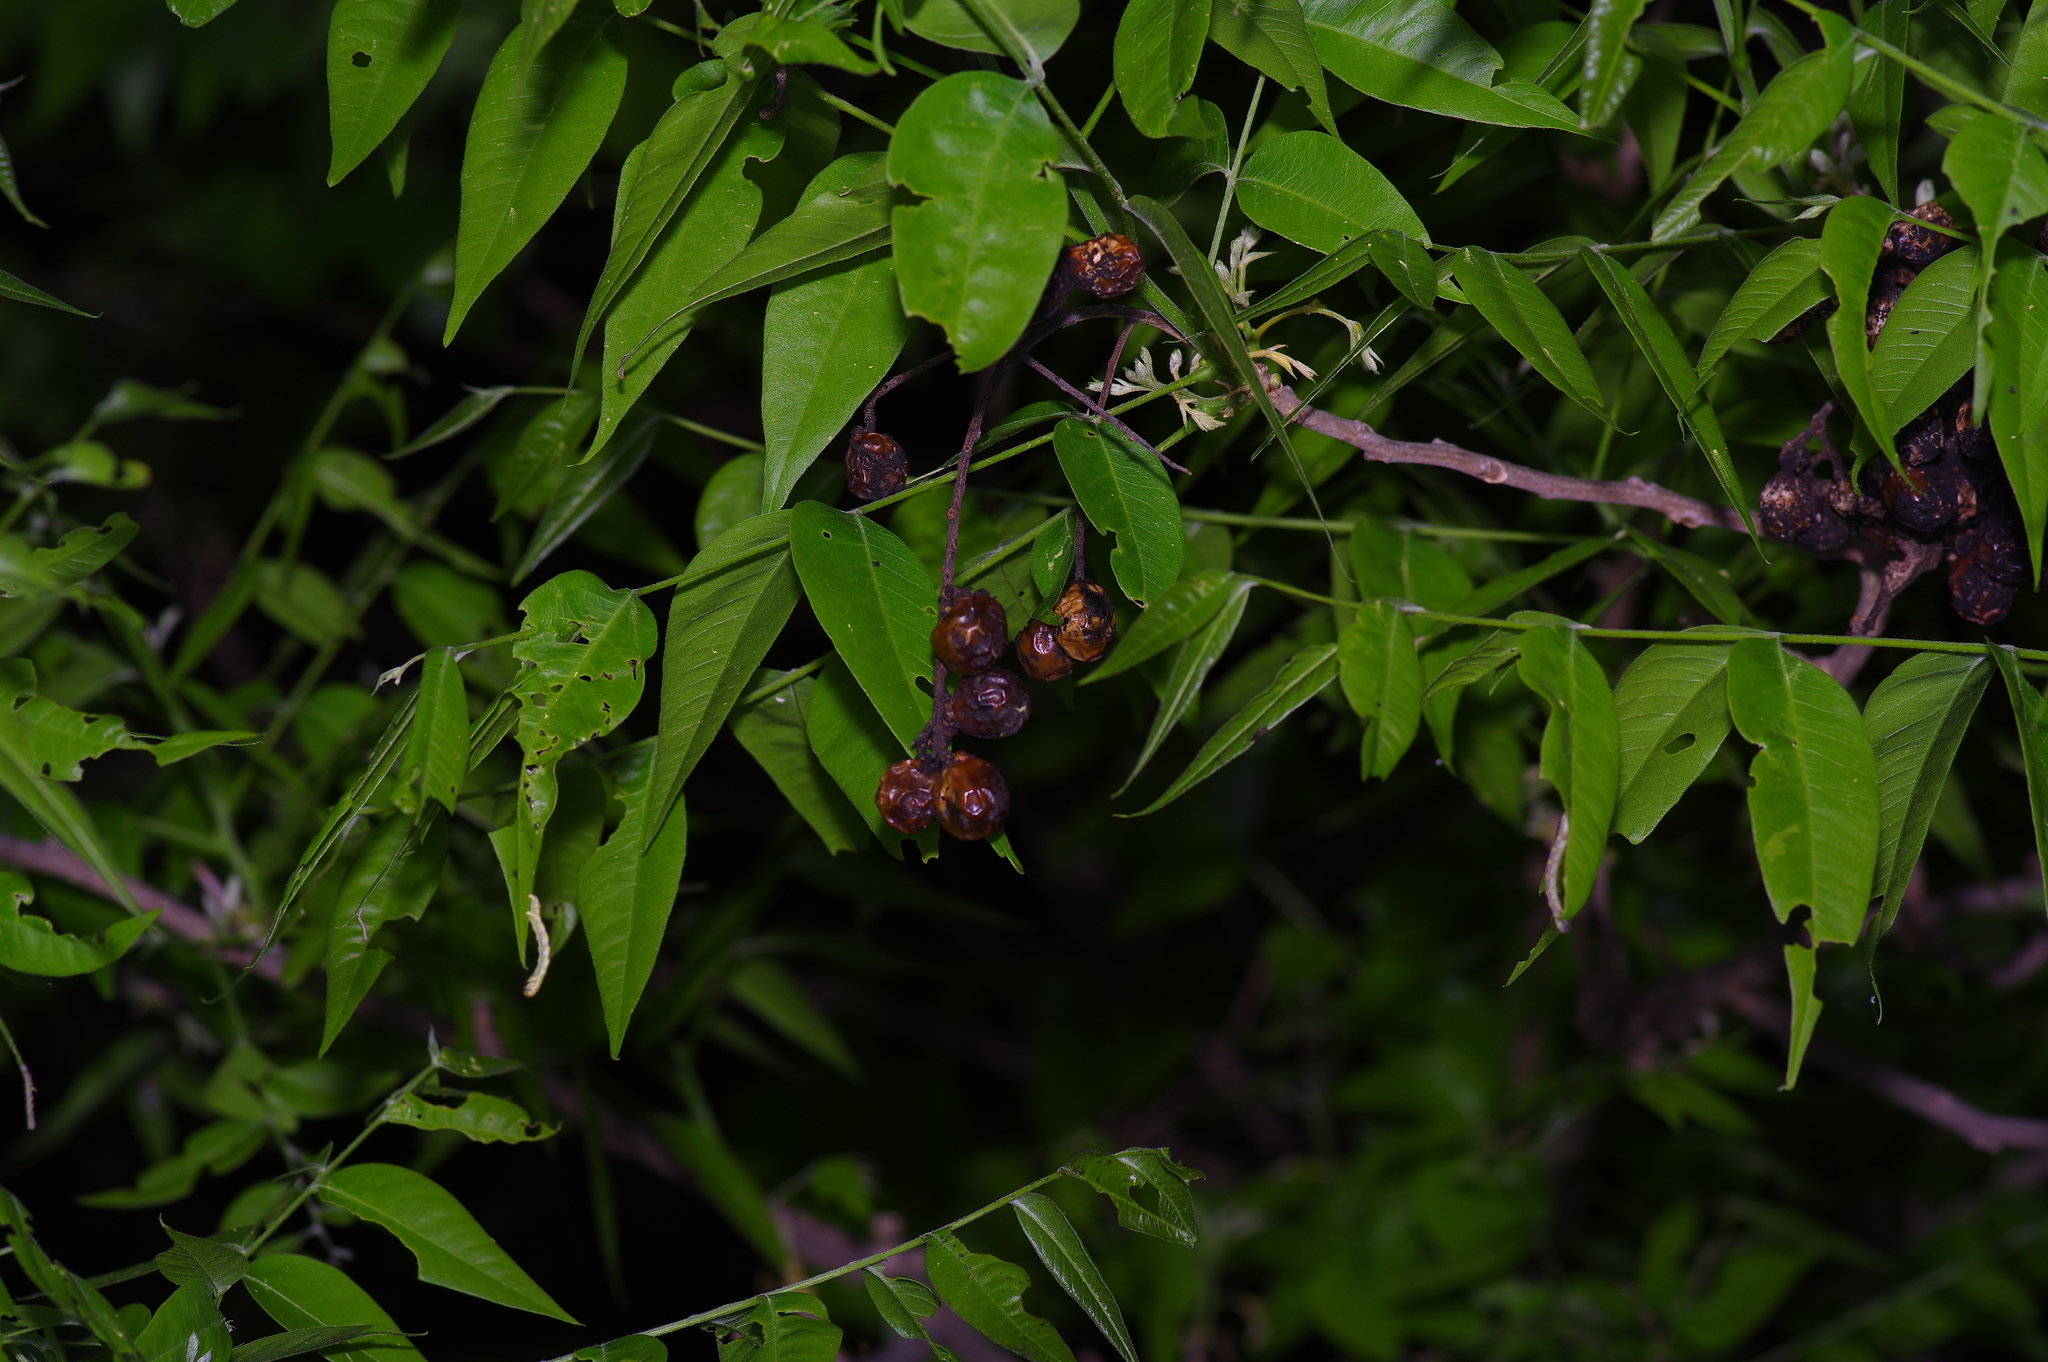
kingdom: Plantae
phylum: Tracheophyta
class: Magnoliopsida
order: Sapindales
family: Sapindaceae
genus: Sapindus
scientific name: Sapindus drummondii
